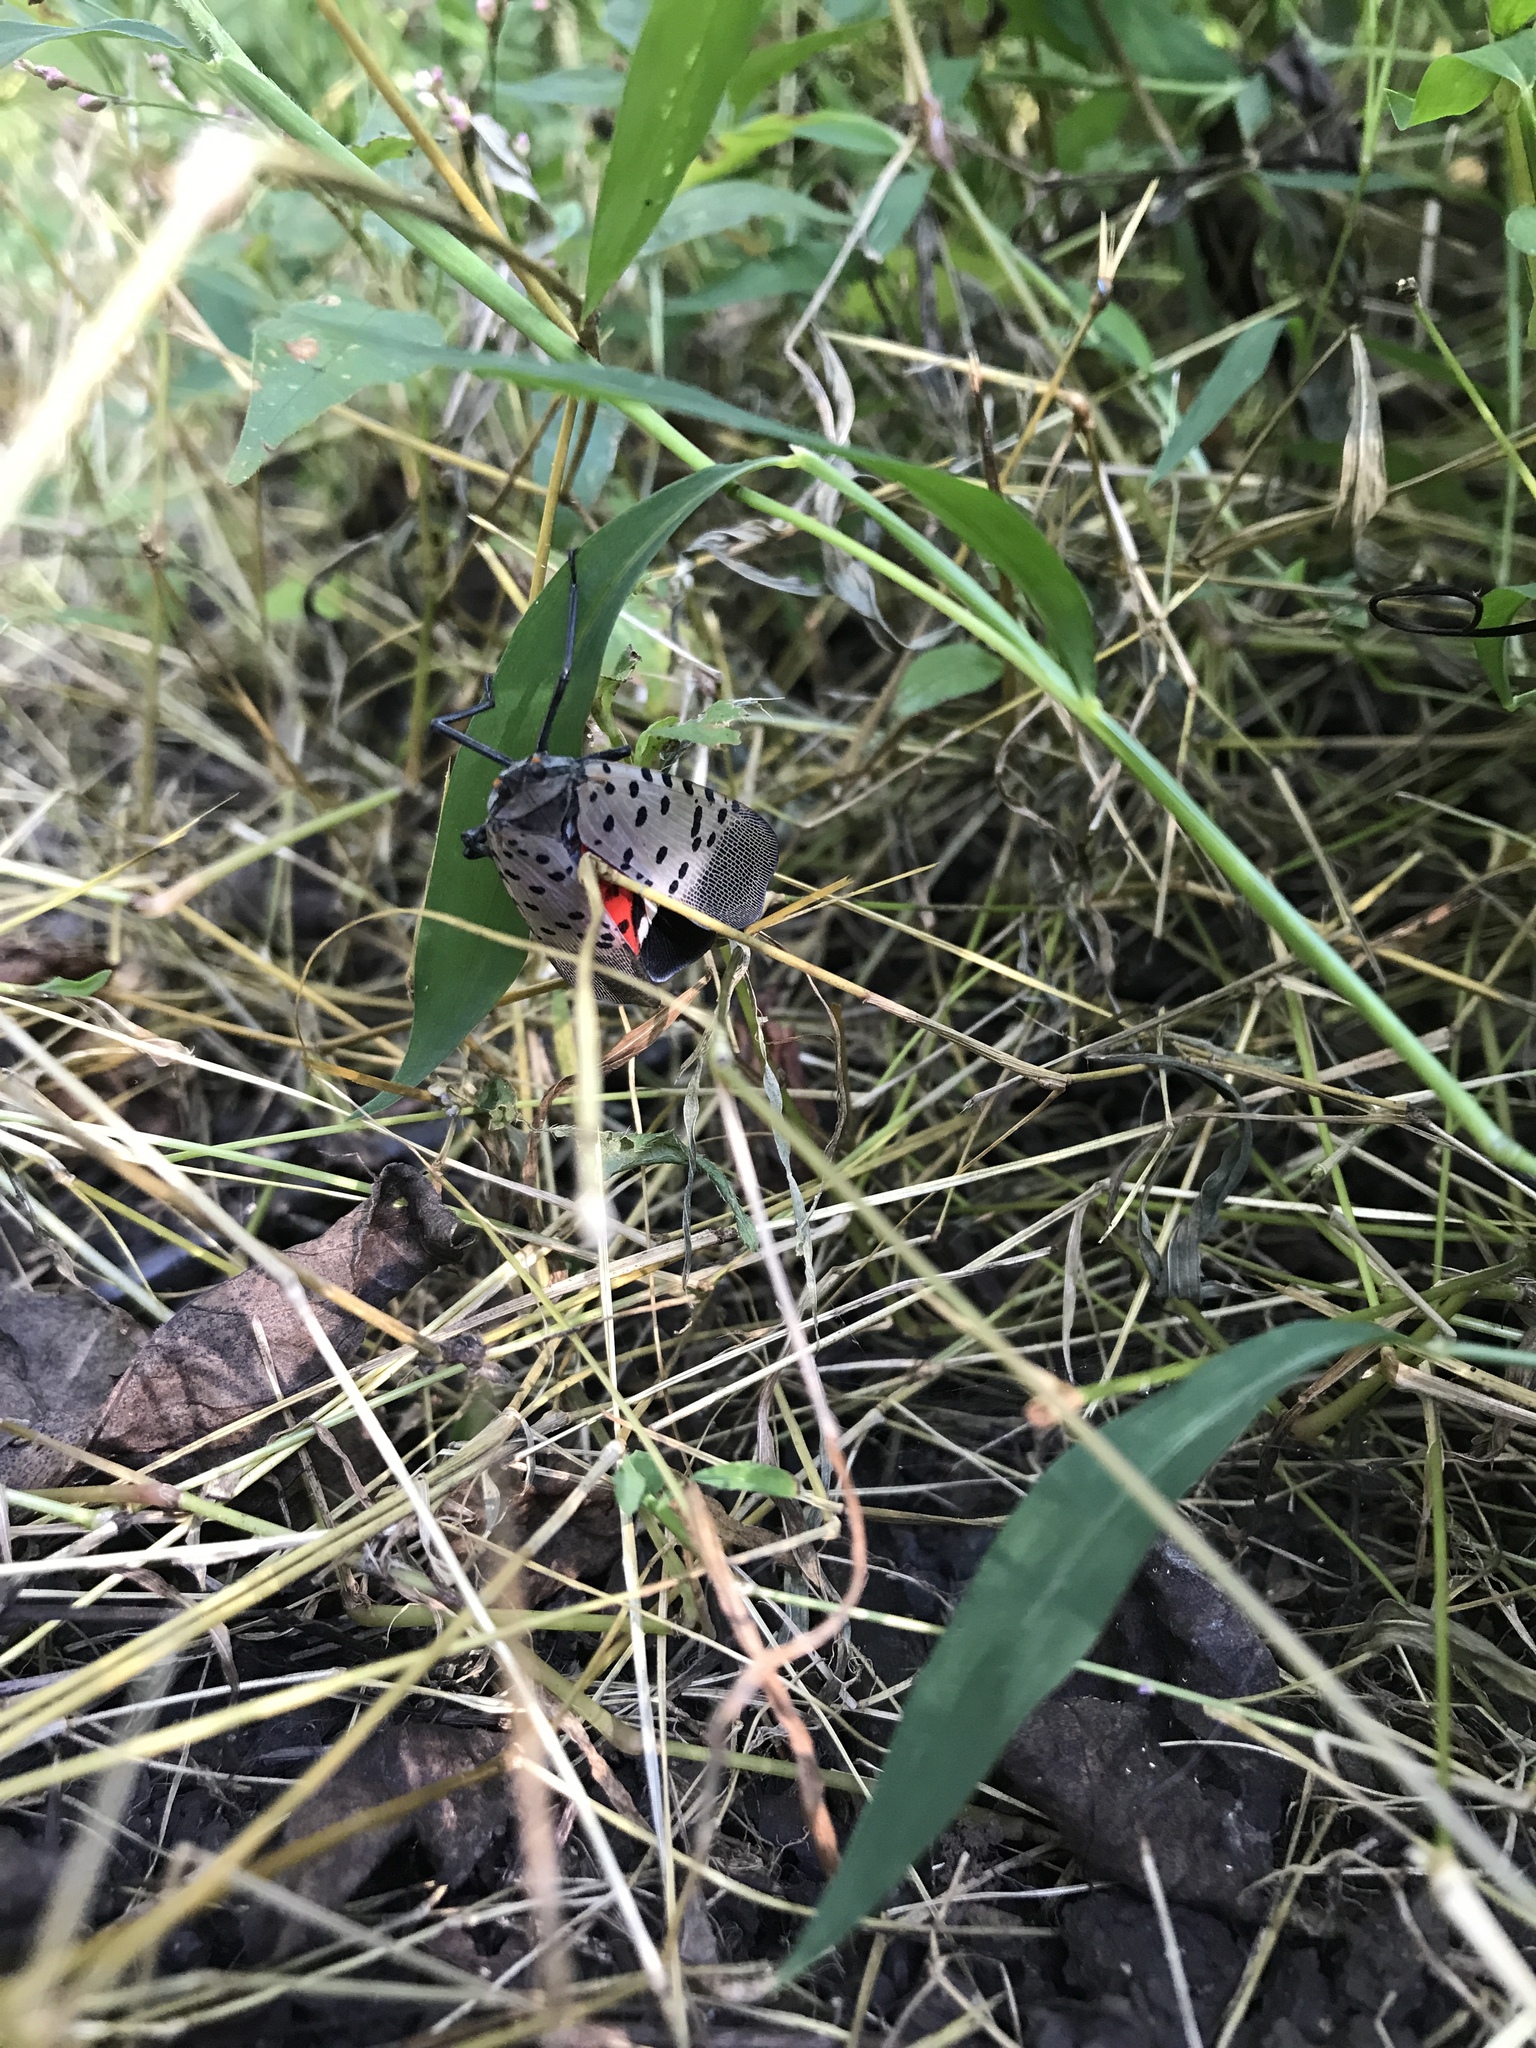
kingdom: Animalia
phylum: Arthropoda
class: Insecta
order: Hemiptera
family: Fulgoridae
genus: Lycorma
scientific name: Lycorma delicatula
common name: Spotted lanternfly
